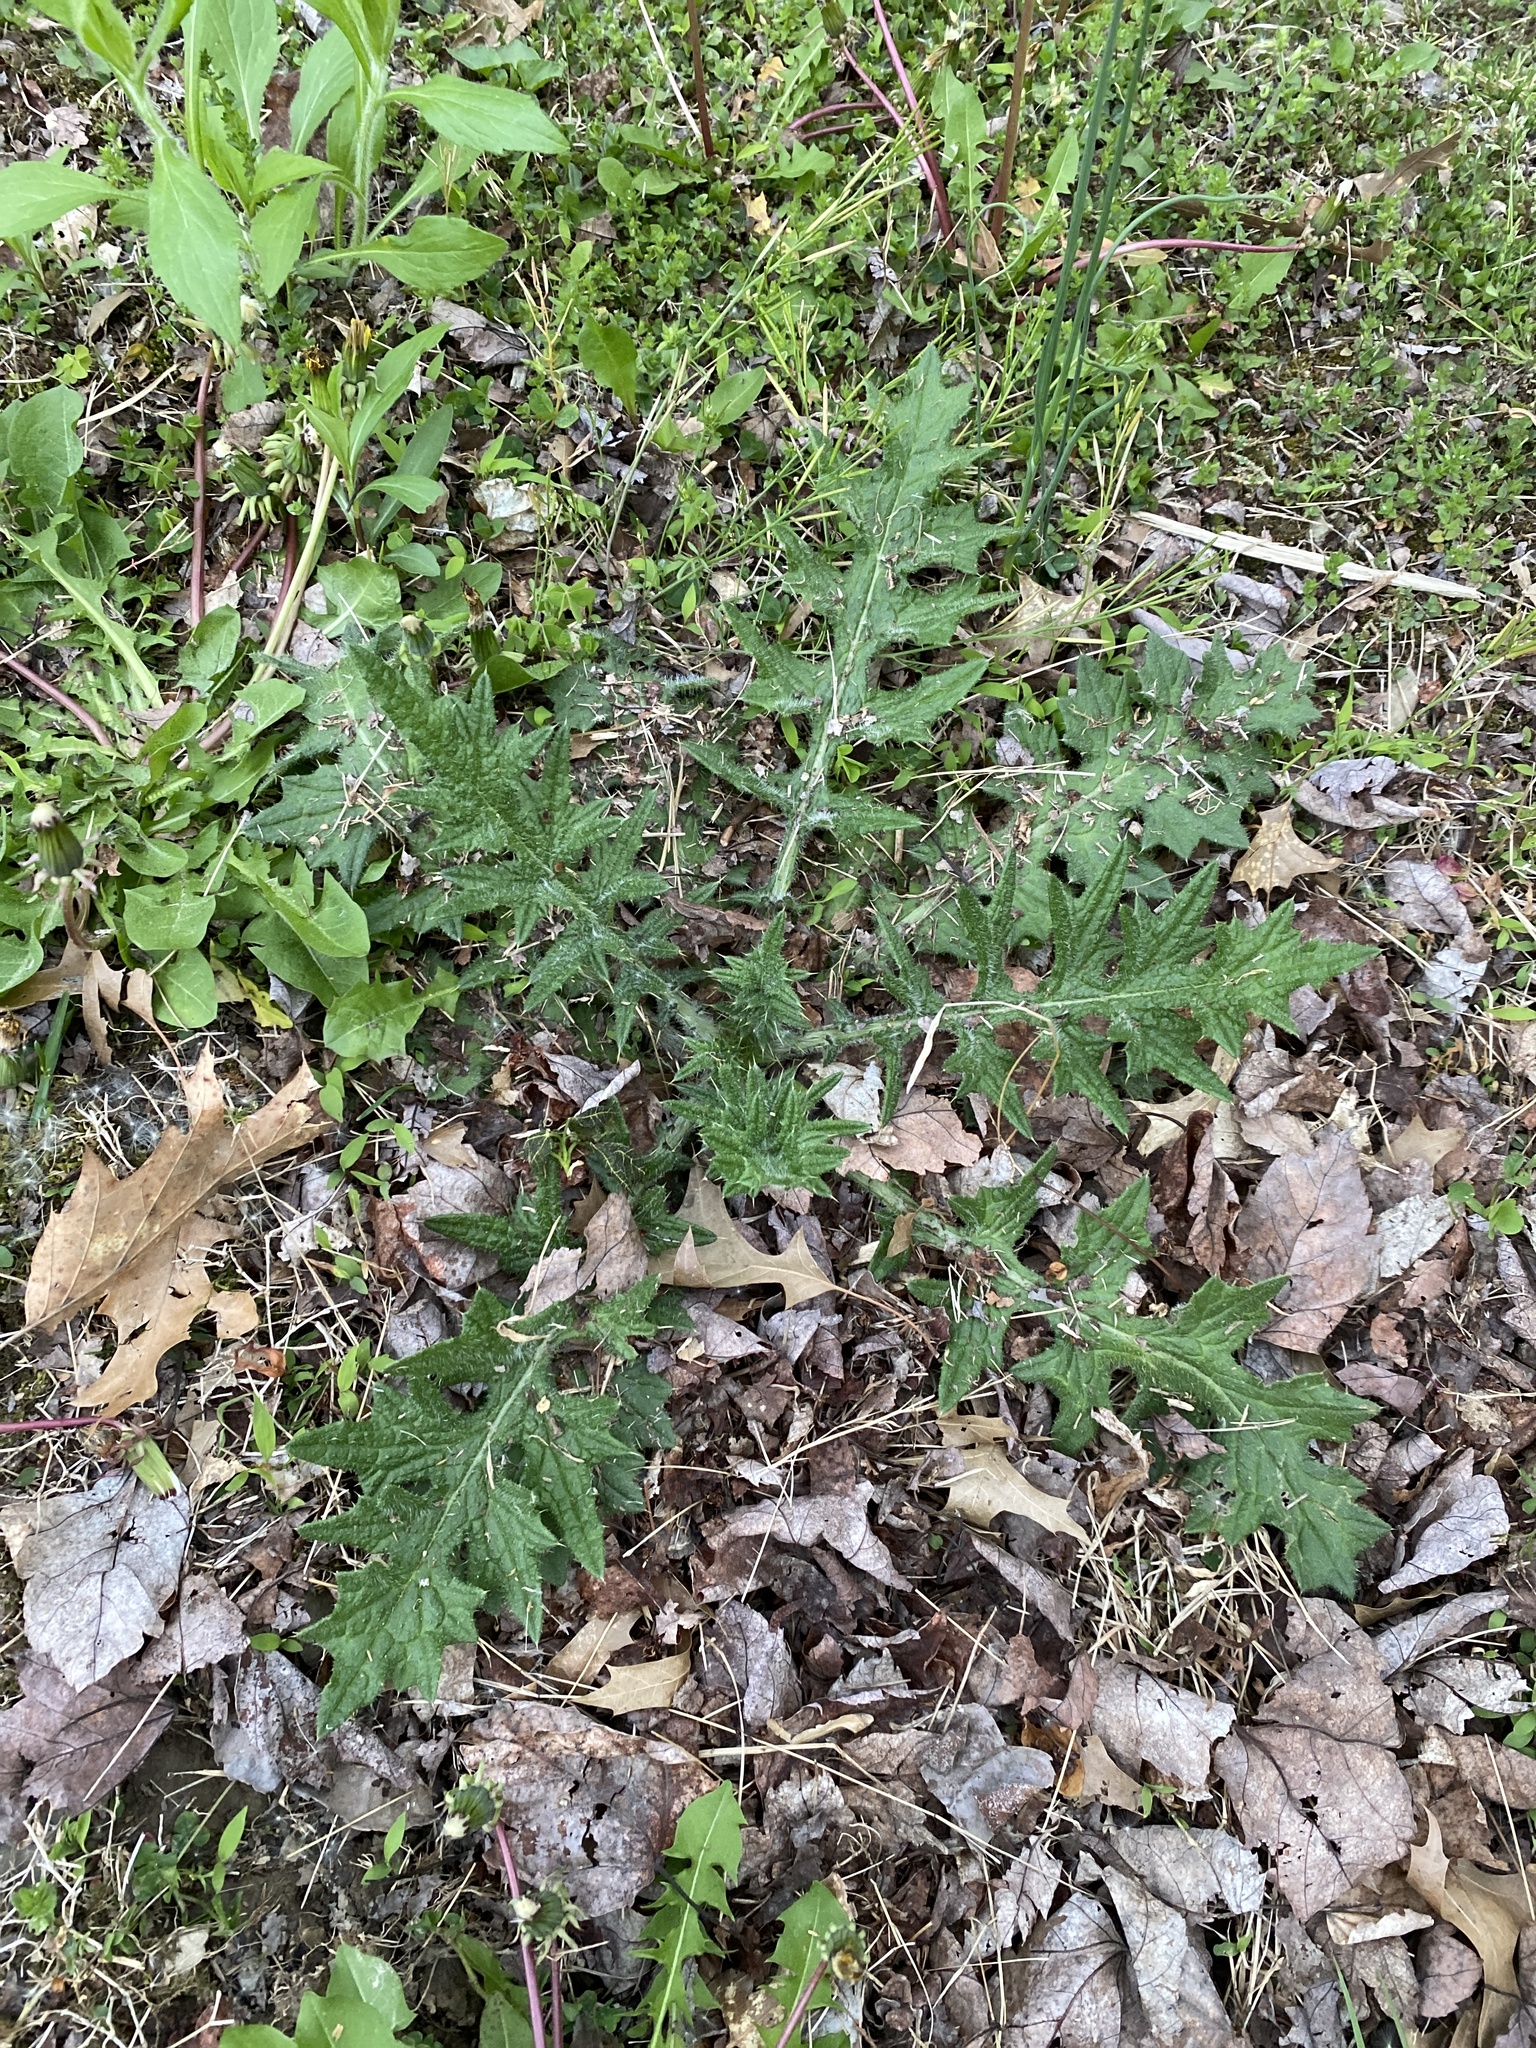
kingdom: Plantae
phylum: Tracheophyta
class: Magnoliopsida
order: Asterales
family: Asteraceae
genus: Cirsium
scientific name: Cirsium vulgare
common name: Bull thistle
